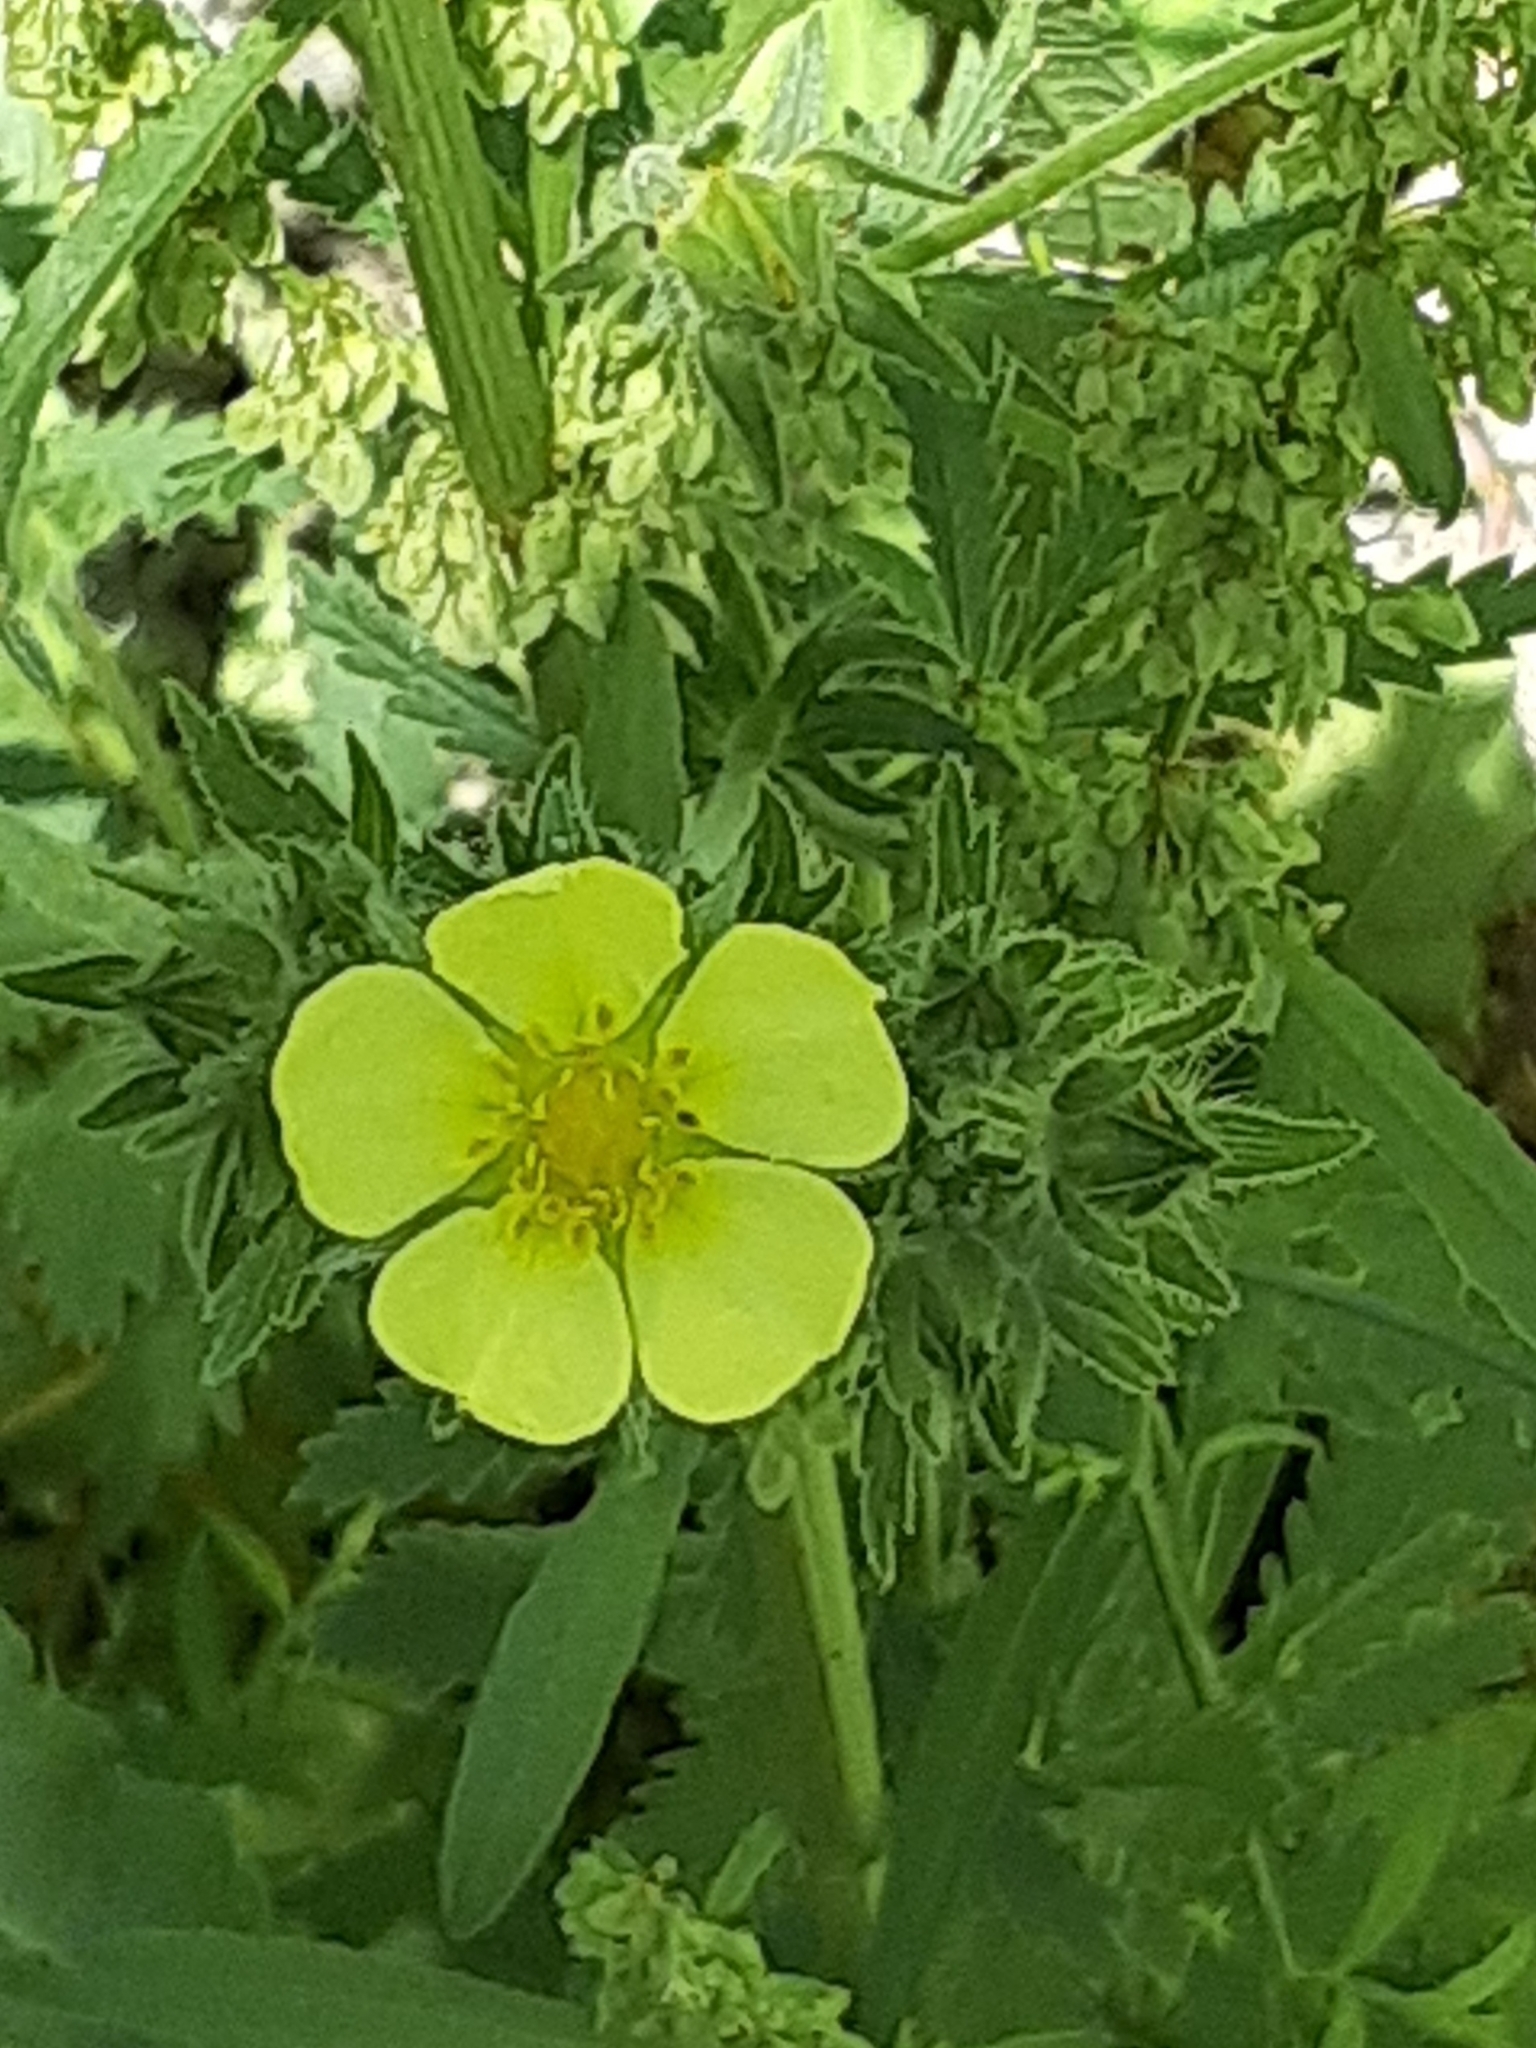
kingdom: Plantae
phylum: Tracheophyta
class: Magnoliopsida
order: Rosales
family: Rosaceae
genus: Potentilla
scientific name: Potentilla recta
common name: Sulphur cinquefoil
